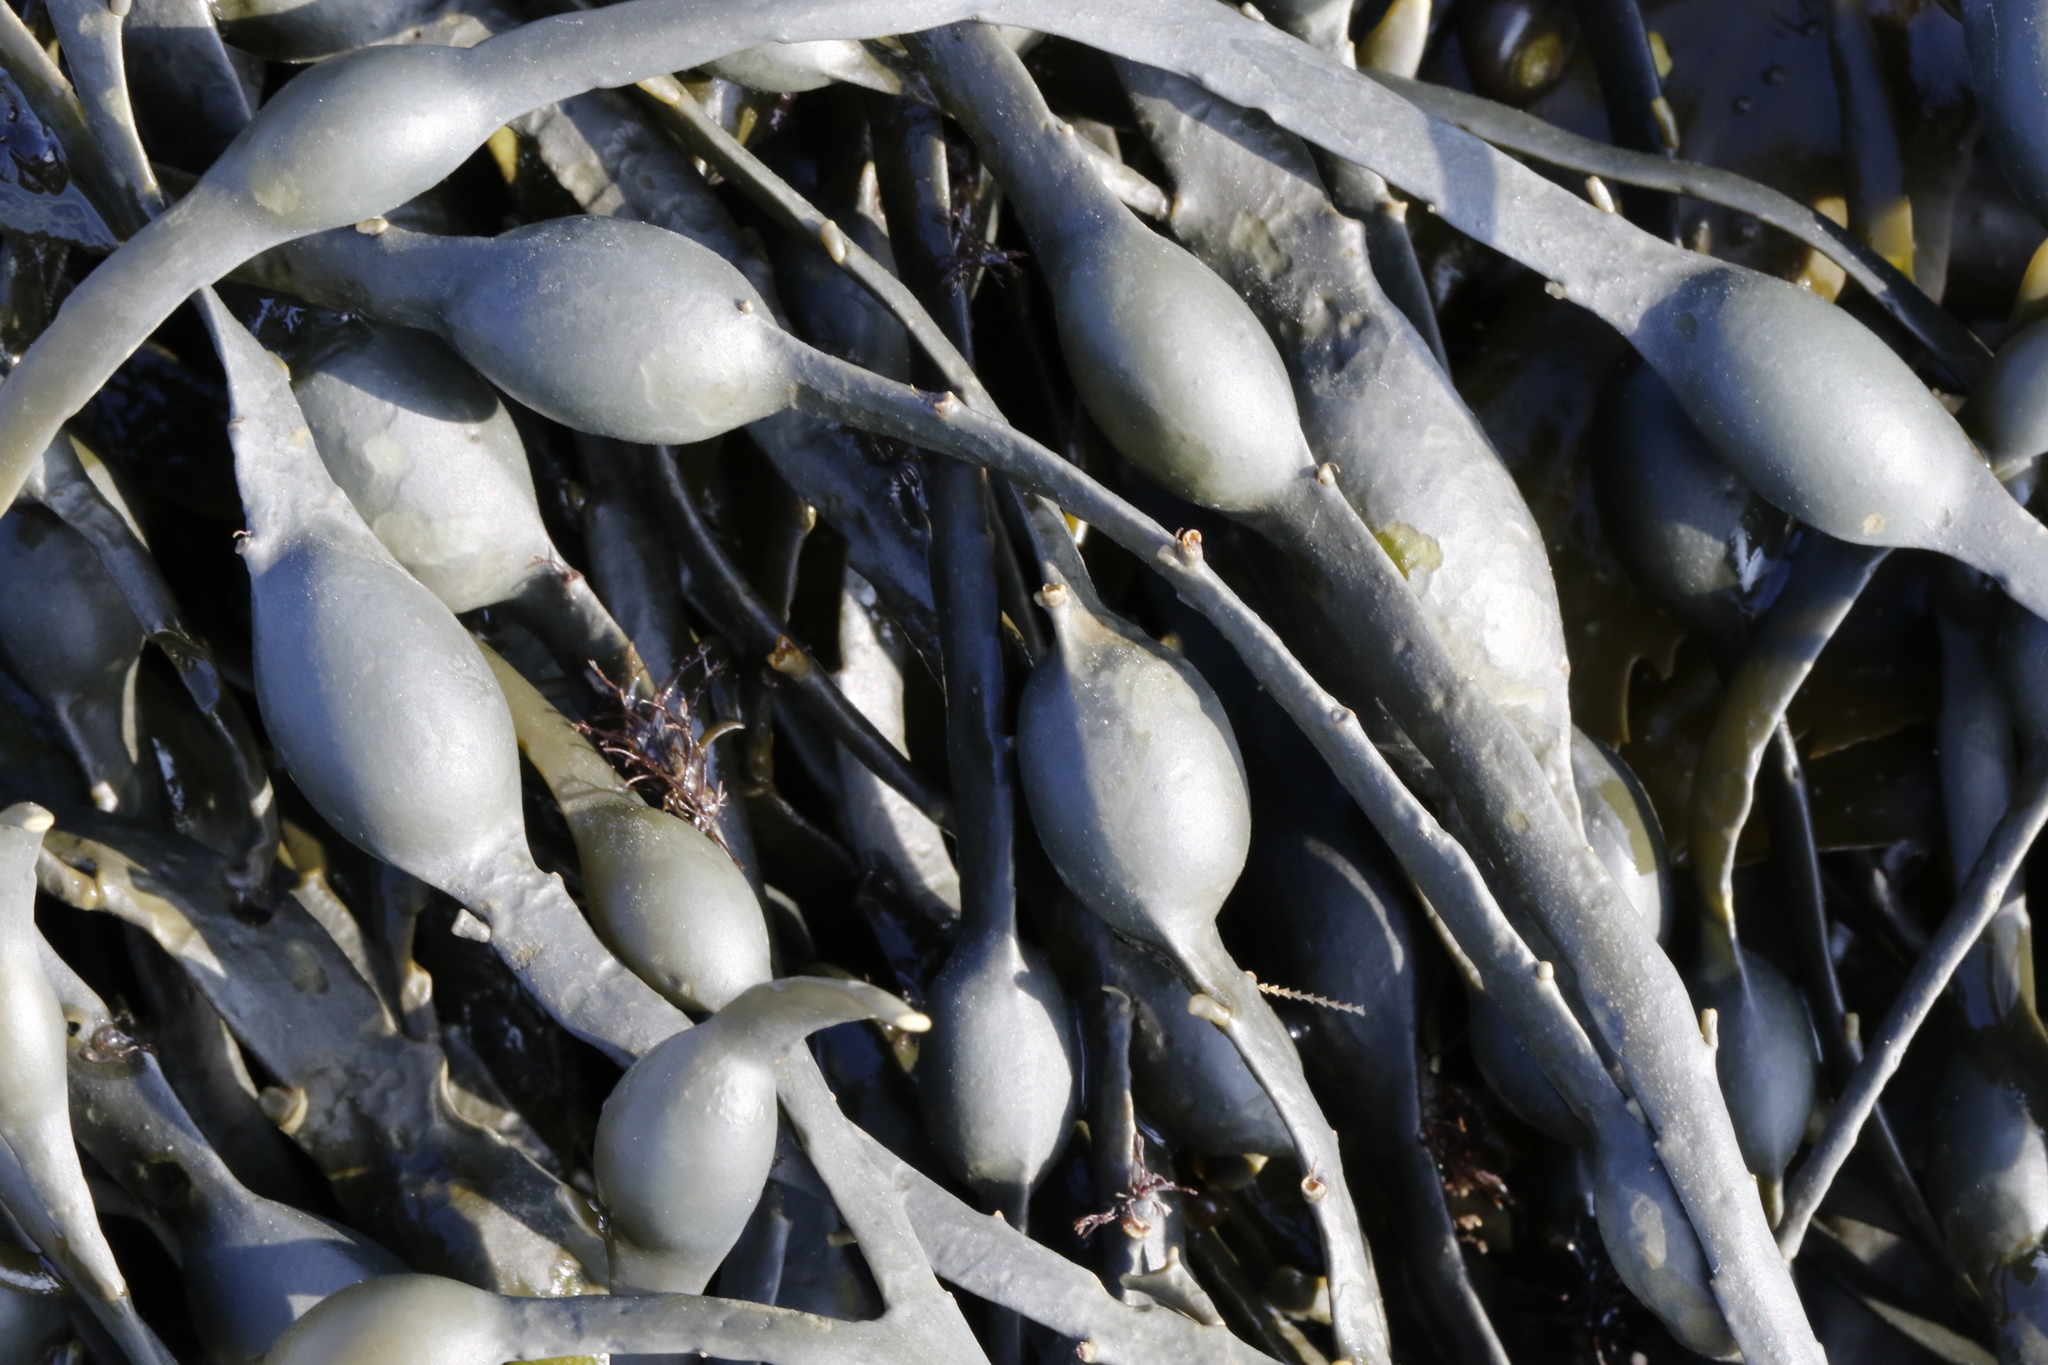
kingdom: Chromista
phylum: Ochrophyta
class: Phaeophyceae
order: Fucales
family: Fucaceae
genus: Ascophyllum
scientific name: Ascophyllum nodosum
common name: Knotted wrack
